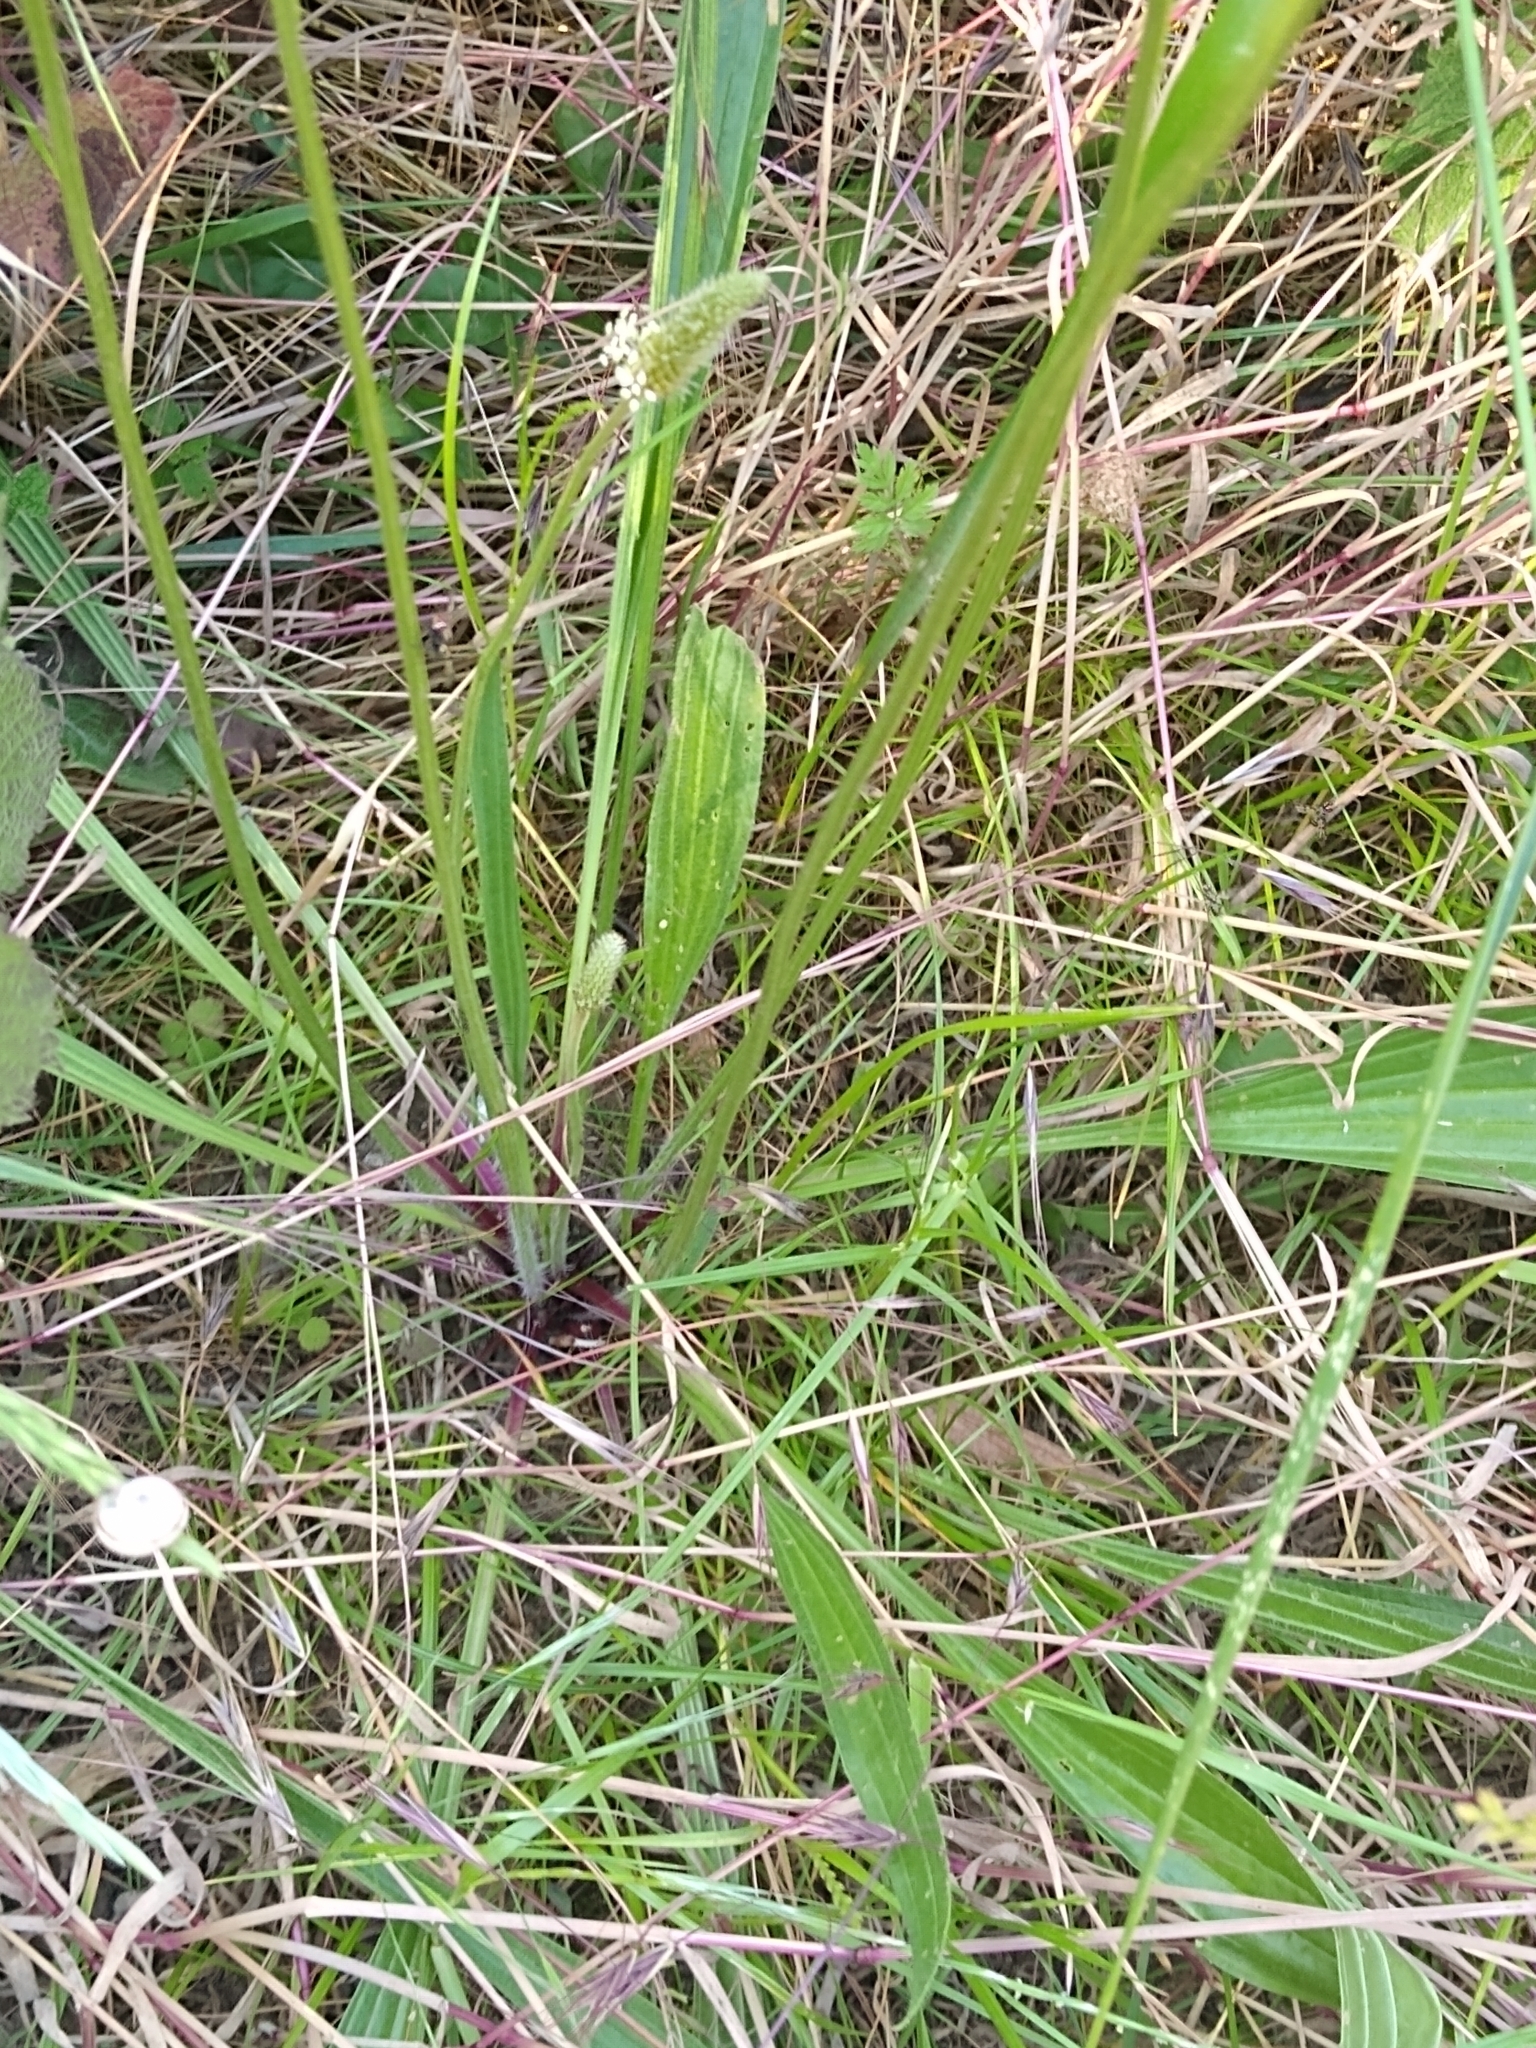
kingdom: Plantae
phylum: Tracheophyta
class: Magnoliopsida
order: Lamiales
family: Plantaginaceae
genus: Plantago
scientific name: Plantago lanceolata
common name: Ribwort plantain
